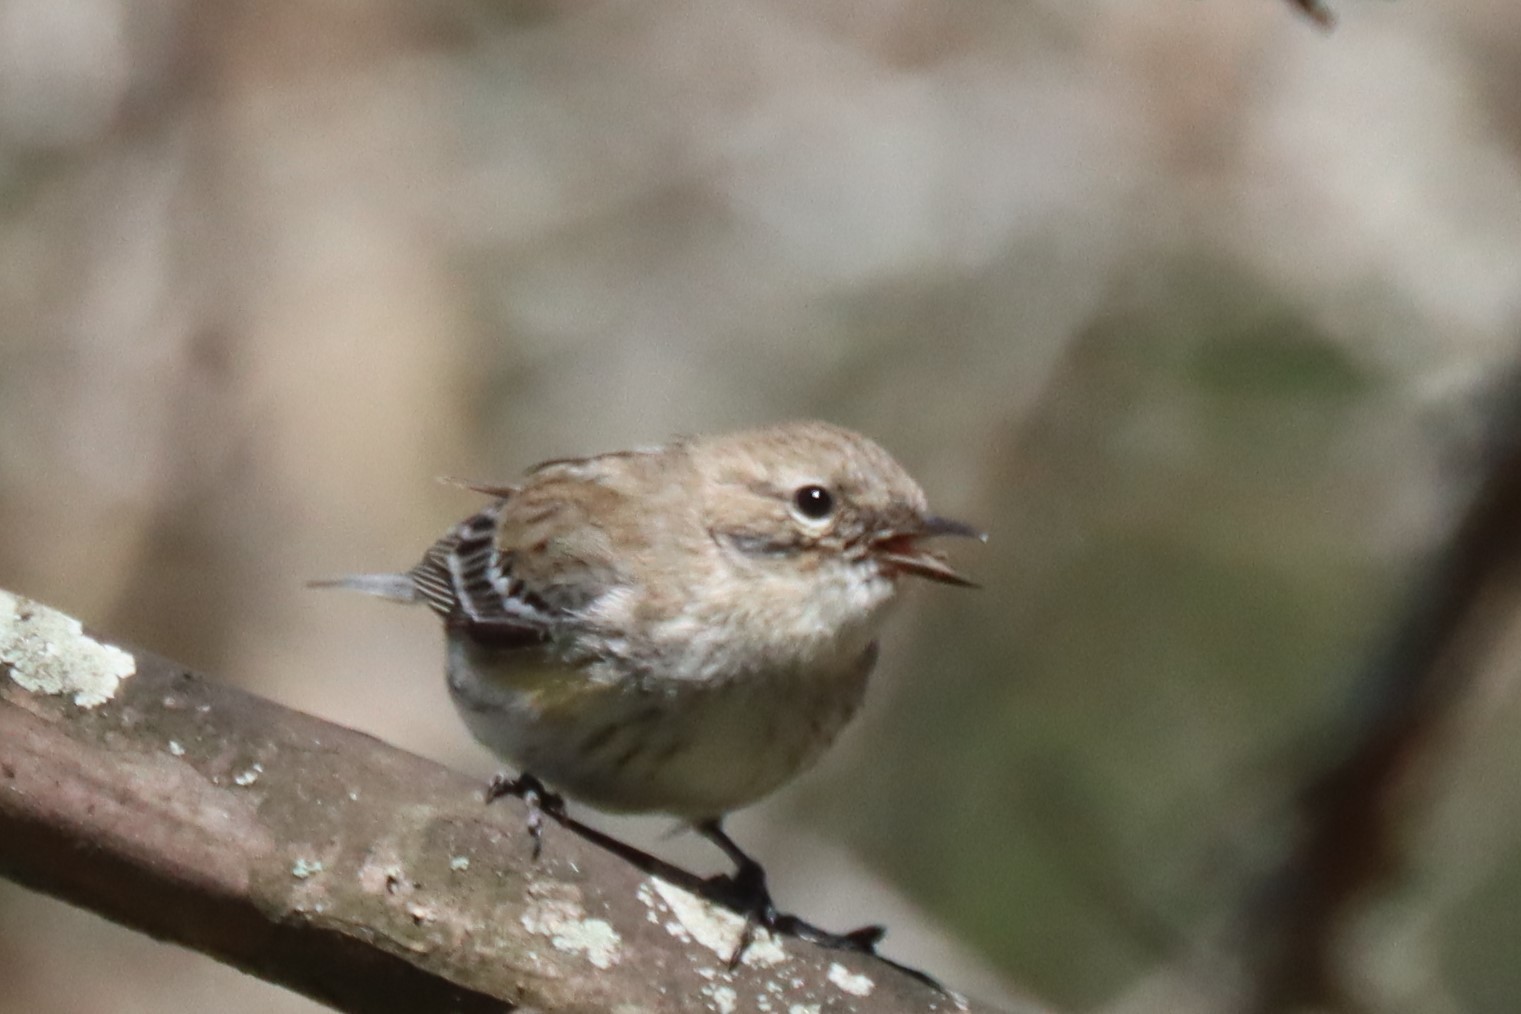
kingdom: Animalia
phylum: Chordata
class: Aves
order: Passeriformes
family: Parulidae
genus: Setophaga
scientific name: Setophaga coronata
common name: Myrtle warbler
